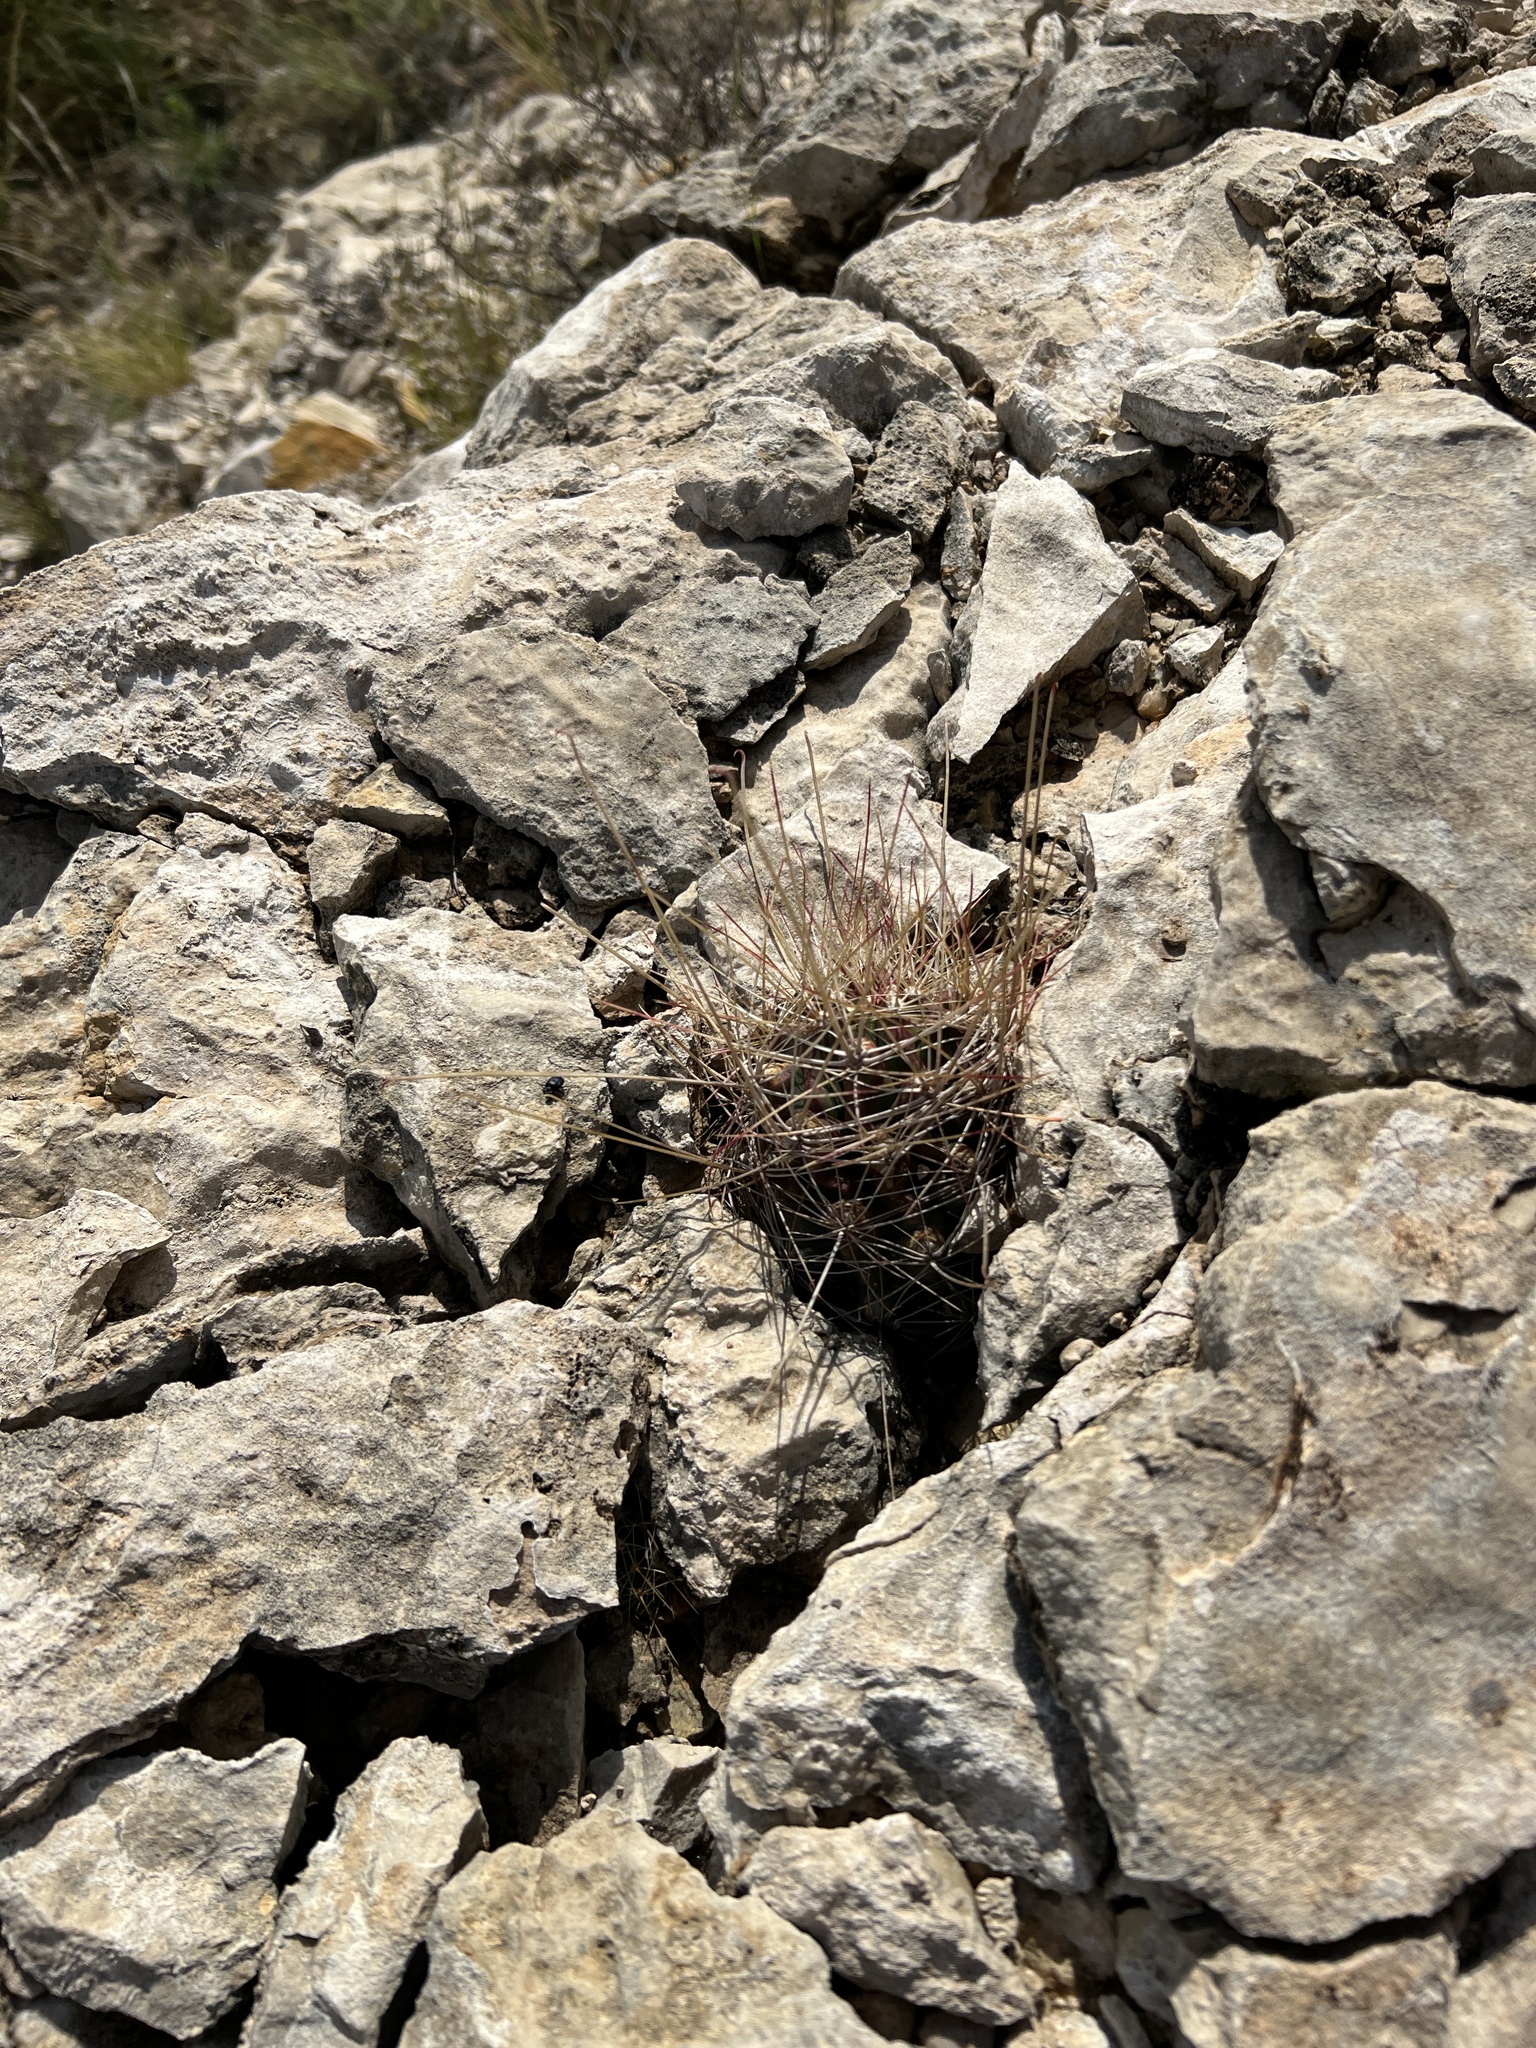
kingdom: Plantae
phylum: Tracheophyta
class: Magnoliopsida
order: Caryophyllales
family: Cactaceae
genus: Bisnaga
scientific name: Bisnaga hamatacantha
